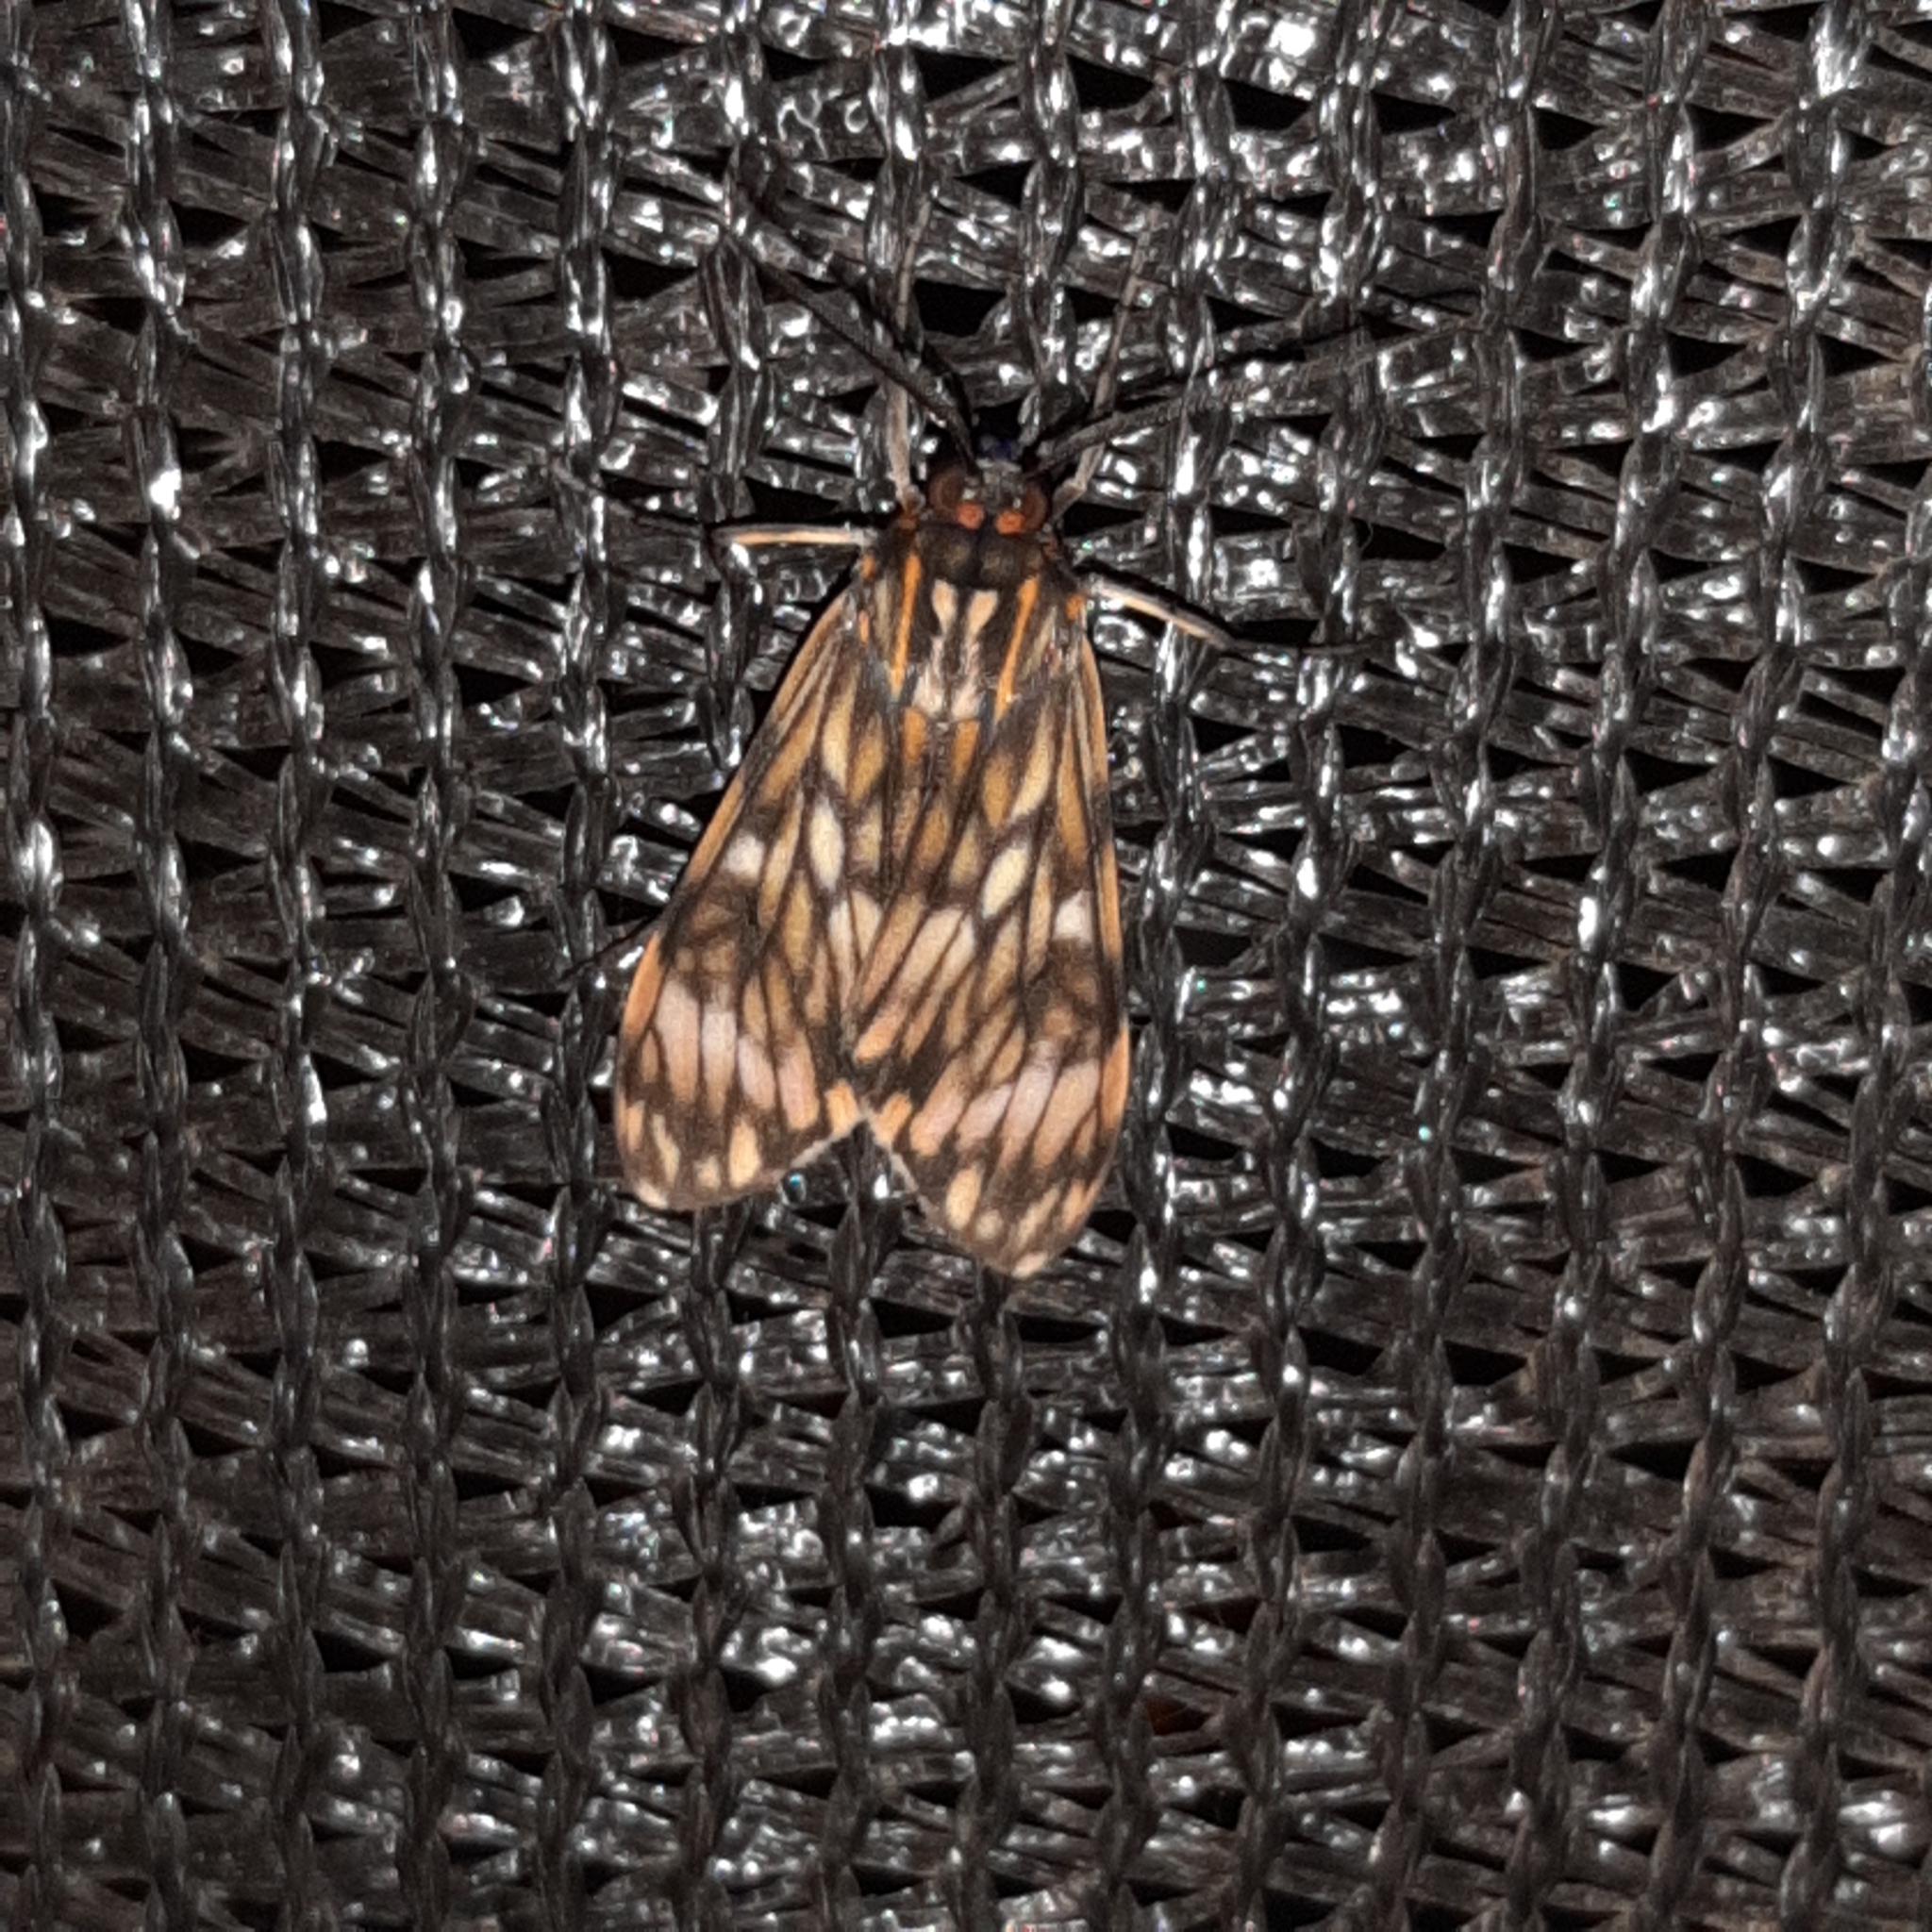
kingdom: Animalia
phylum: Arthropoda
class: Insecta
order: Lepidoptera
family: Erebidae
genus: Theages
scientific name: Theages flavicaput
